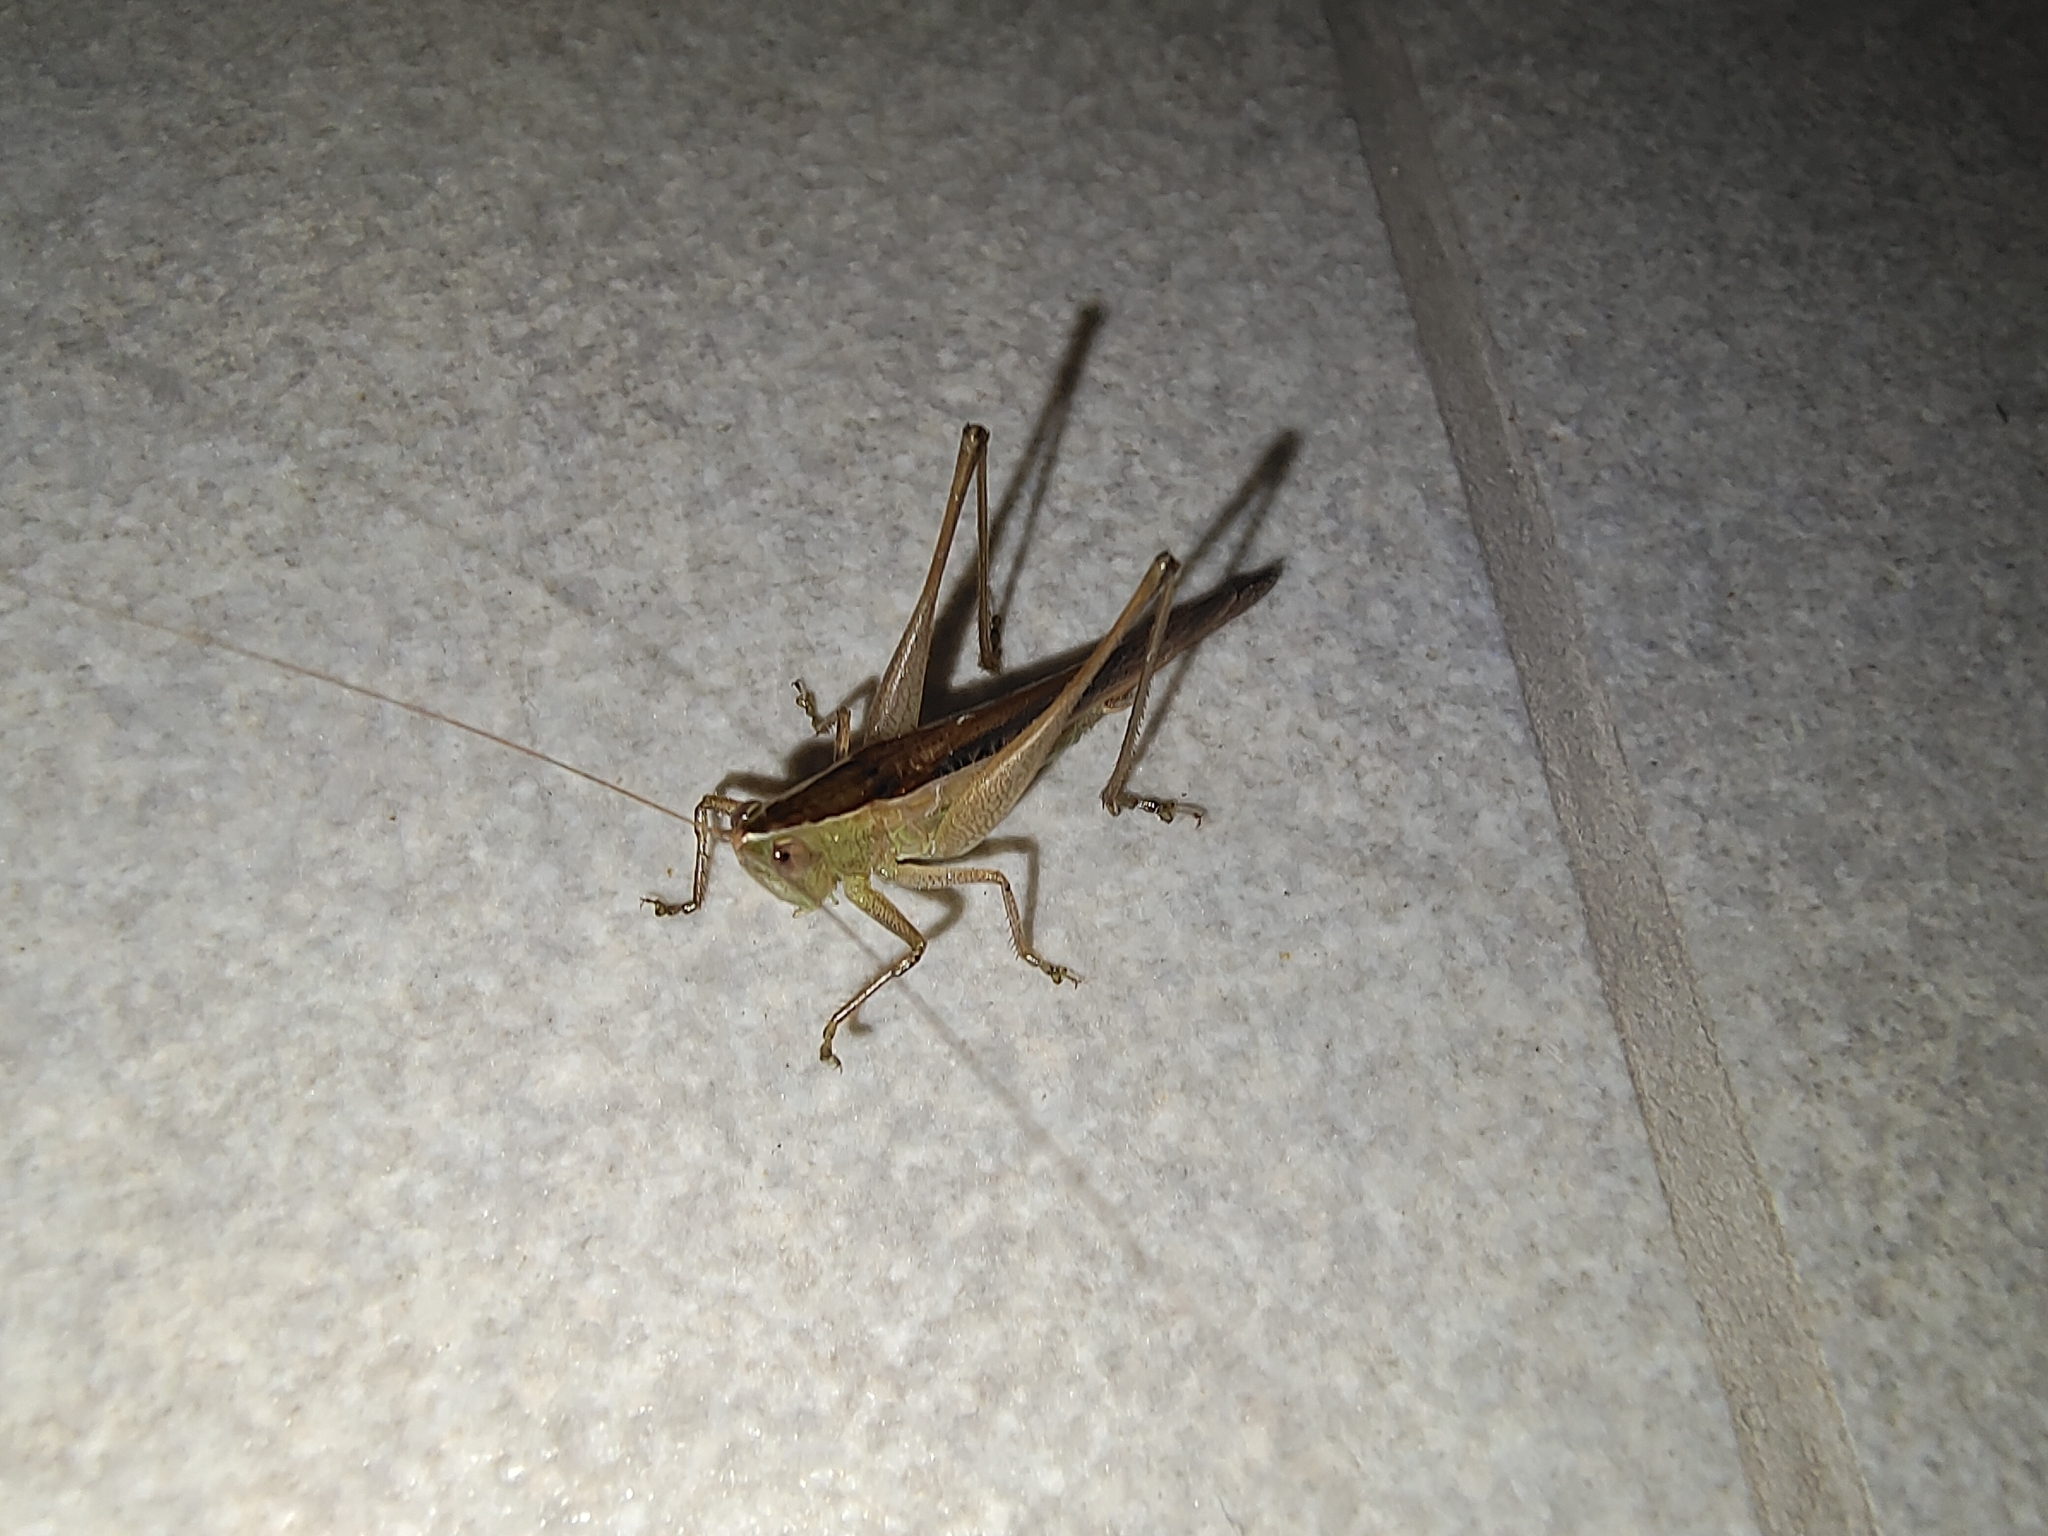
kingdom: Animalia
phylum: Arthropoda
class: Insecta
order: Orthoptera
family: Tettigoniidae
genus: Conocephalus
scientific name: Conocephalus maculatus
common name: Spotted meadow katydid
